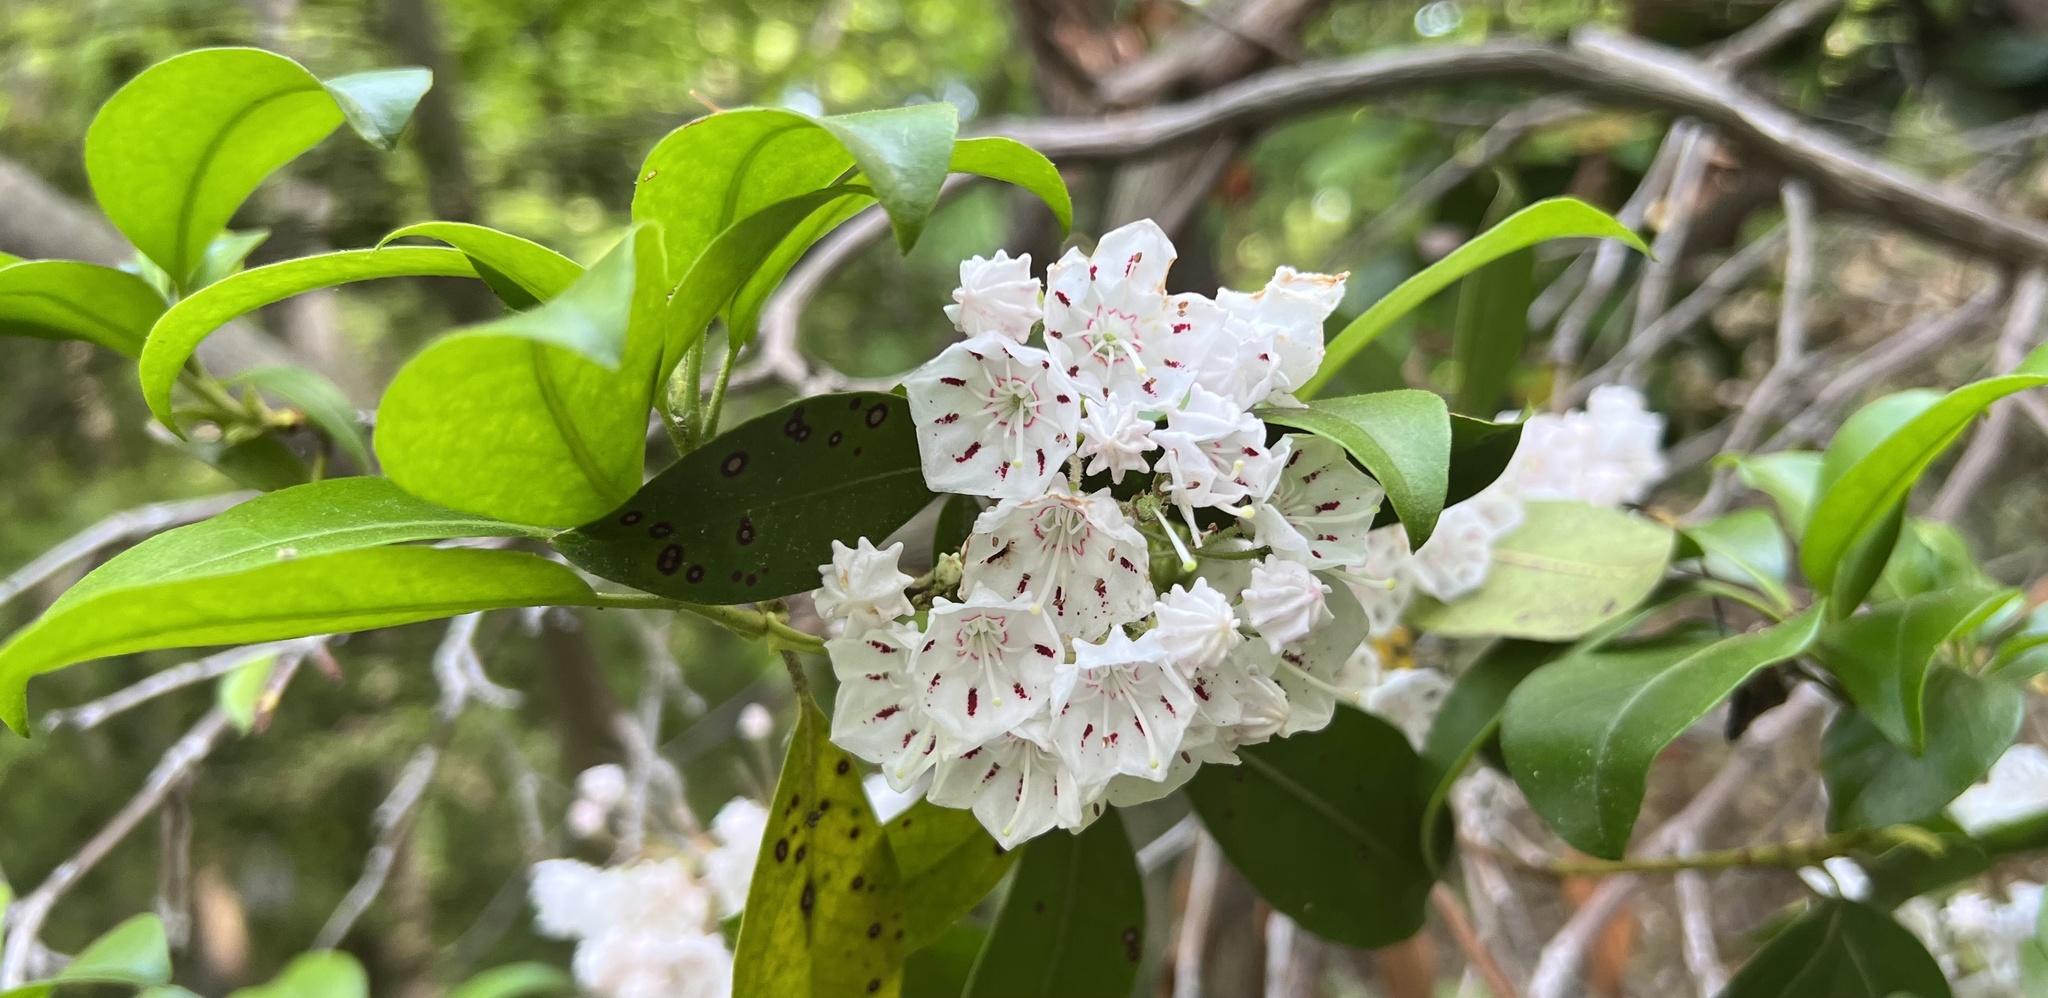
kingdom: Plantae
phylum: Tracheophyta
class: Magnoliopsida
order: Ericales
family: Ericaceae
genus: Kalmia
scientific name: Kalmia latifolia
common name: Mountain-laurel
